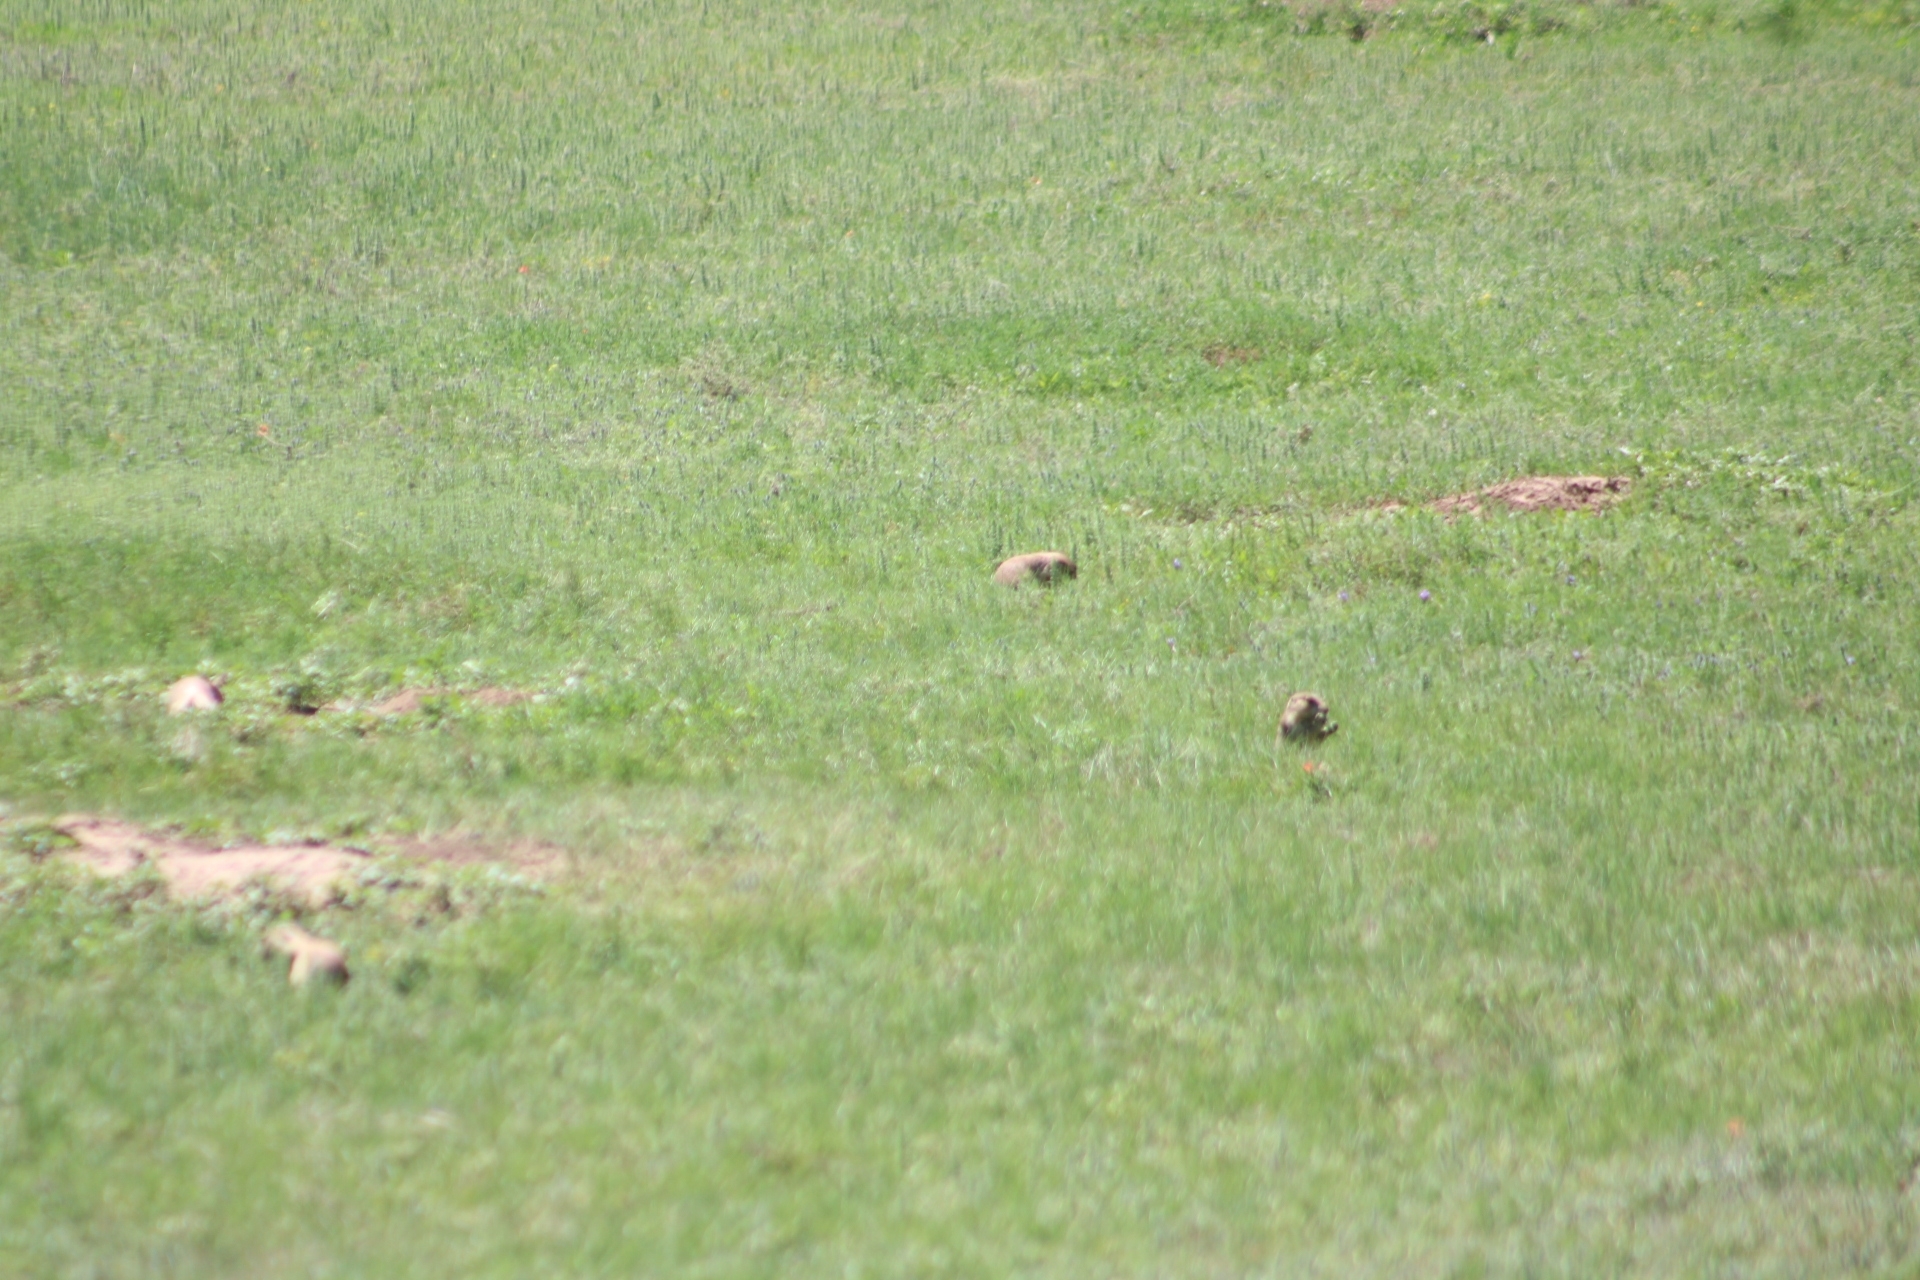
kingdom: Animalia
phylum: Chordata
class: Mammalia
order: Rodentia
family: Sciuridae
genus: Cynomys
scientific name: Cynomys ludovicianus
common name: Black-tailed prairie dog
